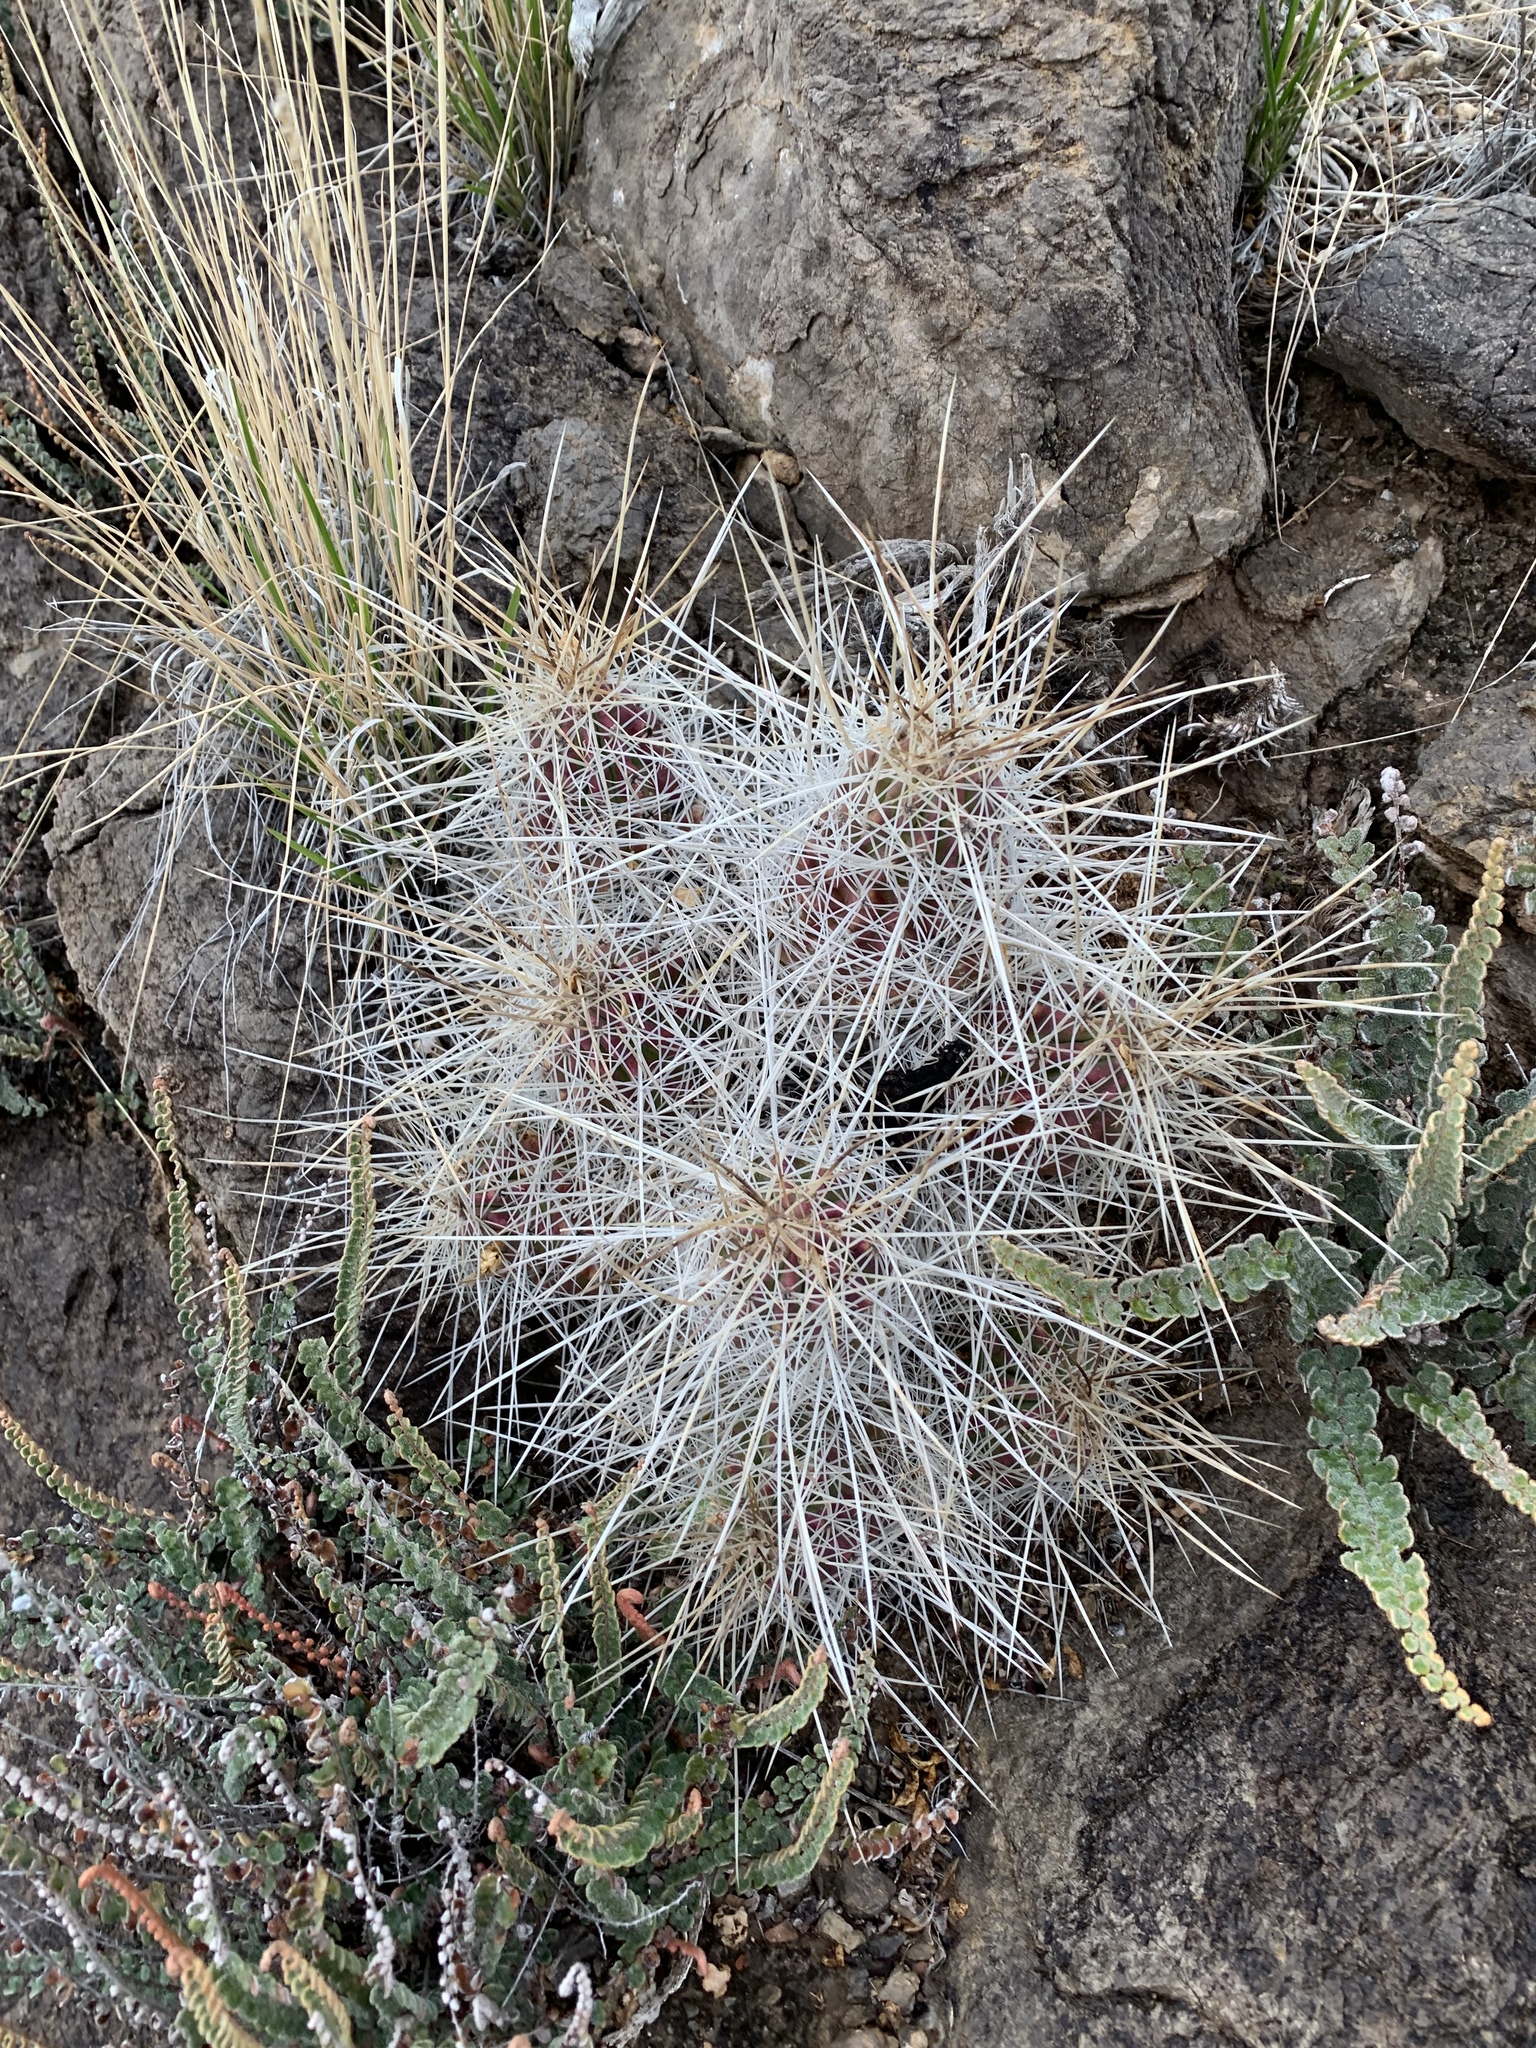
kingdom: Plantae
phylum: Tracheophyta
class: Magnoliopsida
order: Caryophyllales
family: Cactaceae
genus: Echinocereus
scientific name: Echinocereus stramineus
